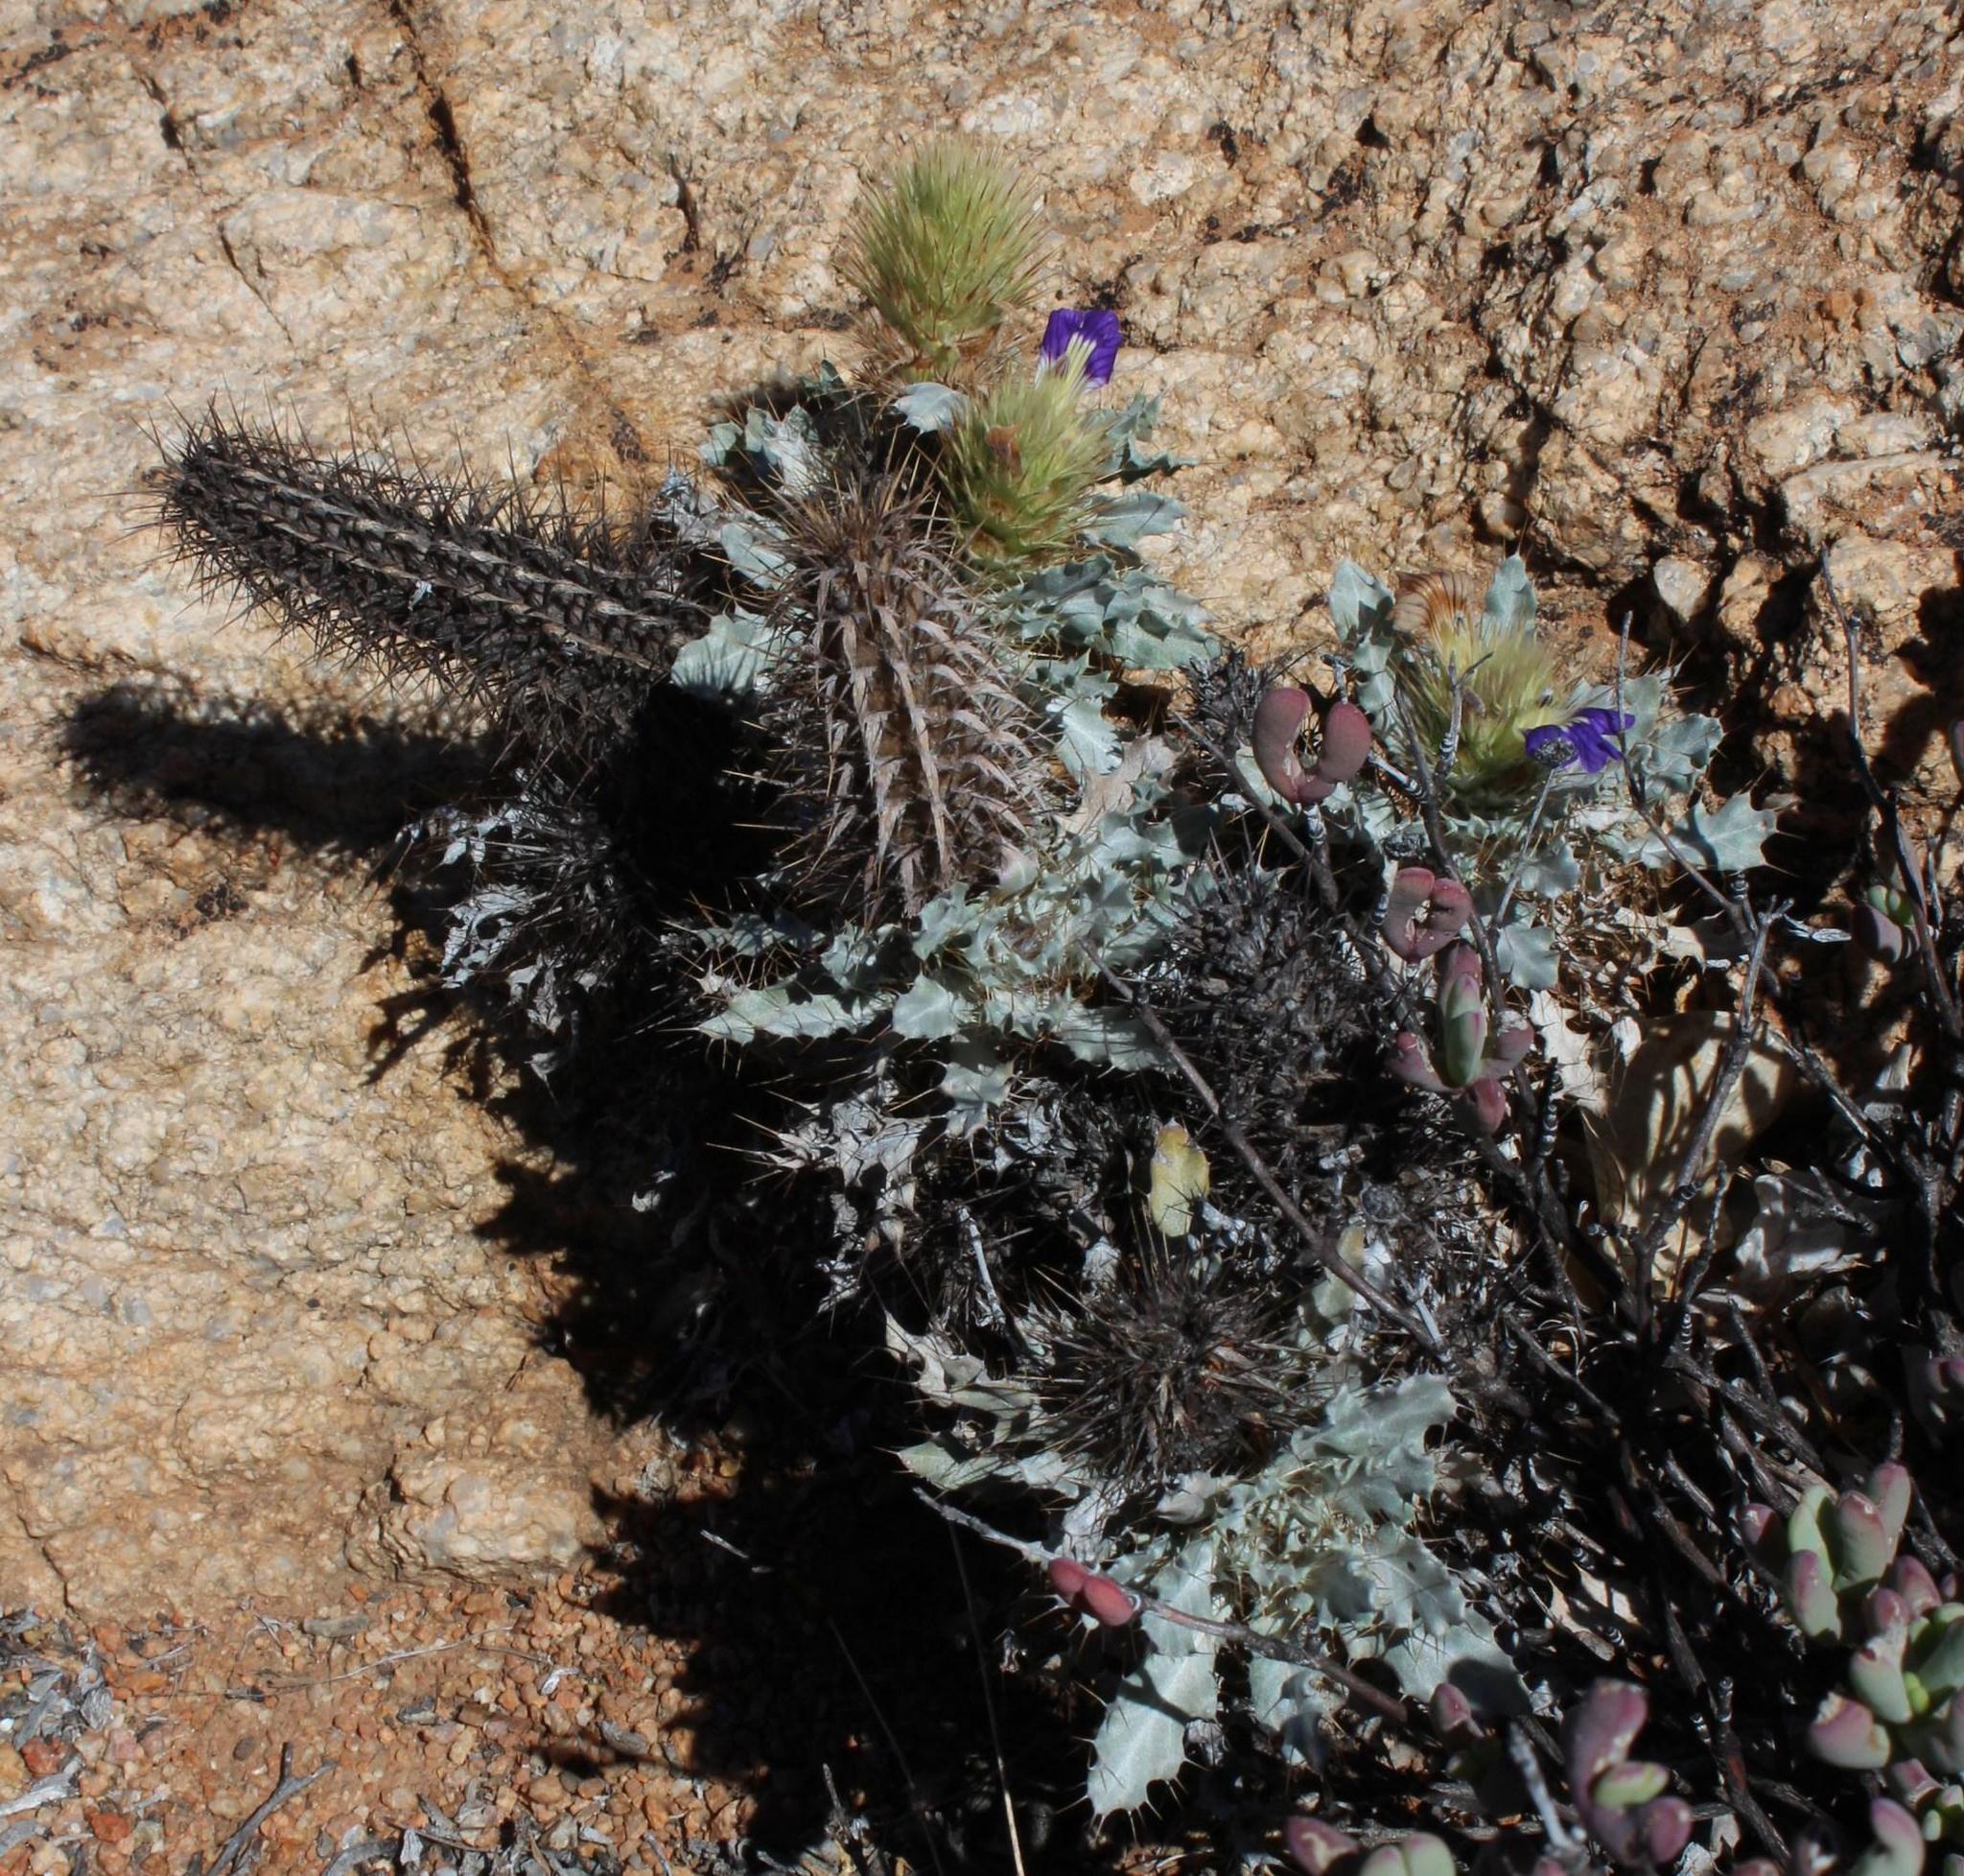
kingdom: Plantae
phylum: Tracheophyta
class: Magnoliopsida
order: Lamiales
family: Acanthaceae
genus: Acanthopsis
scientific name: Acanthopsis ludoviciana
